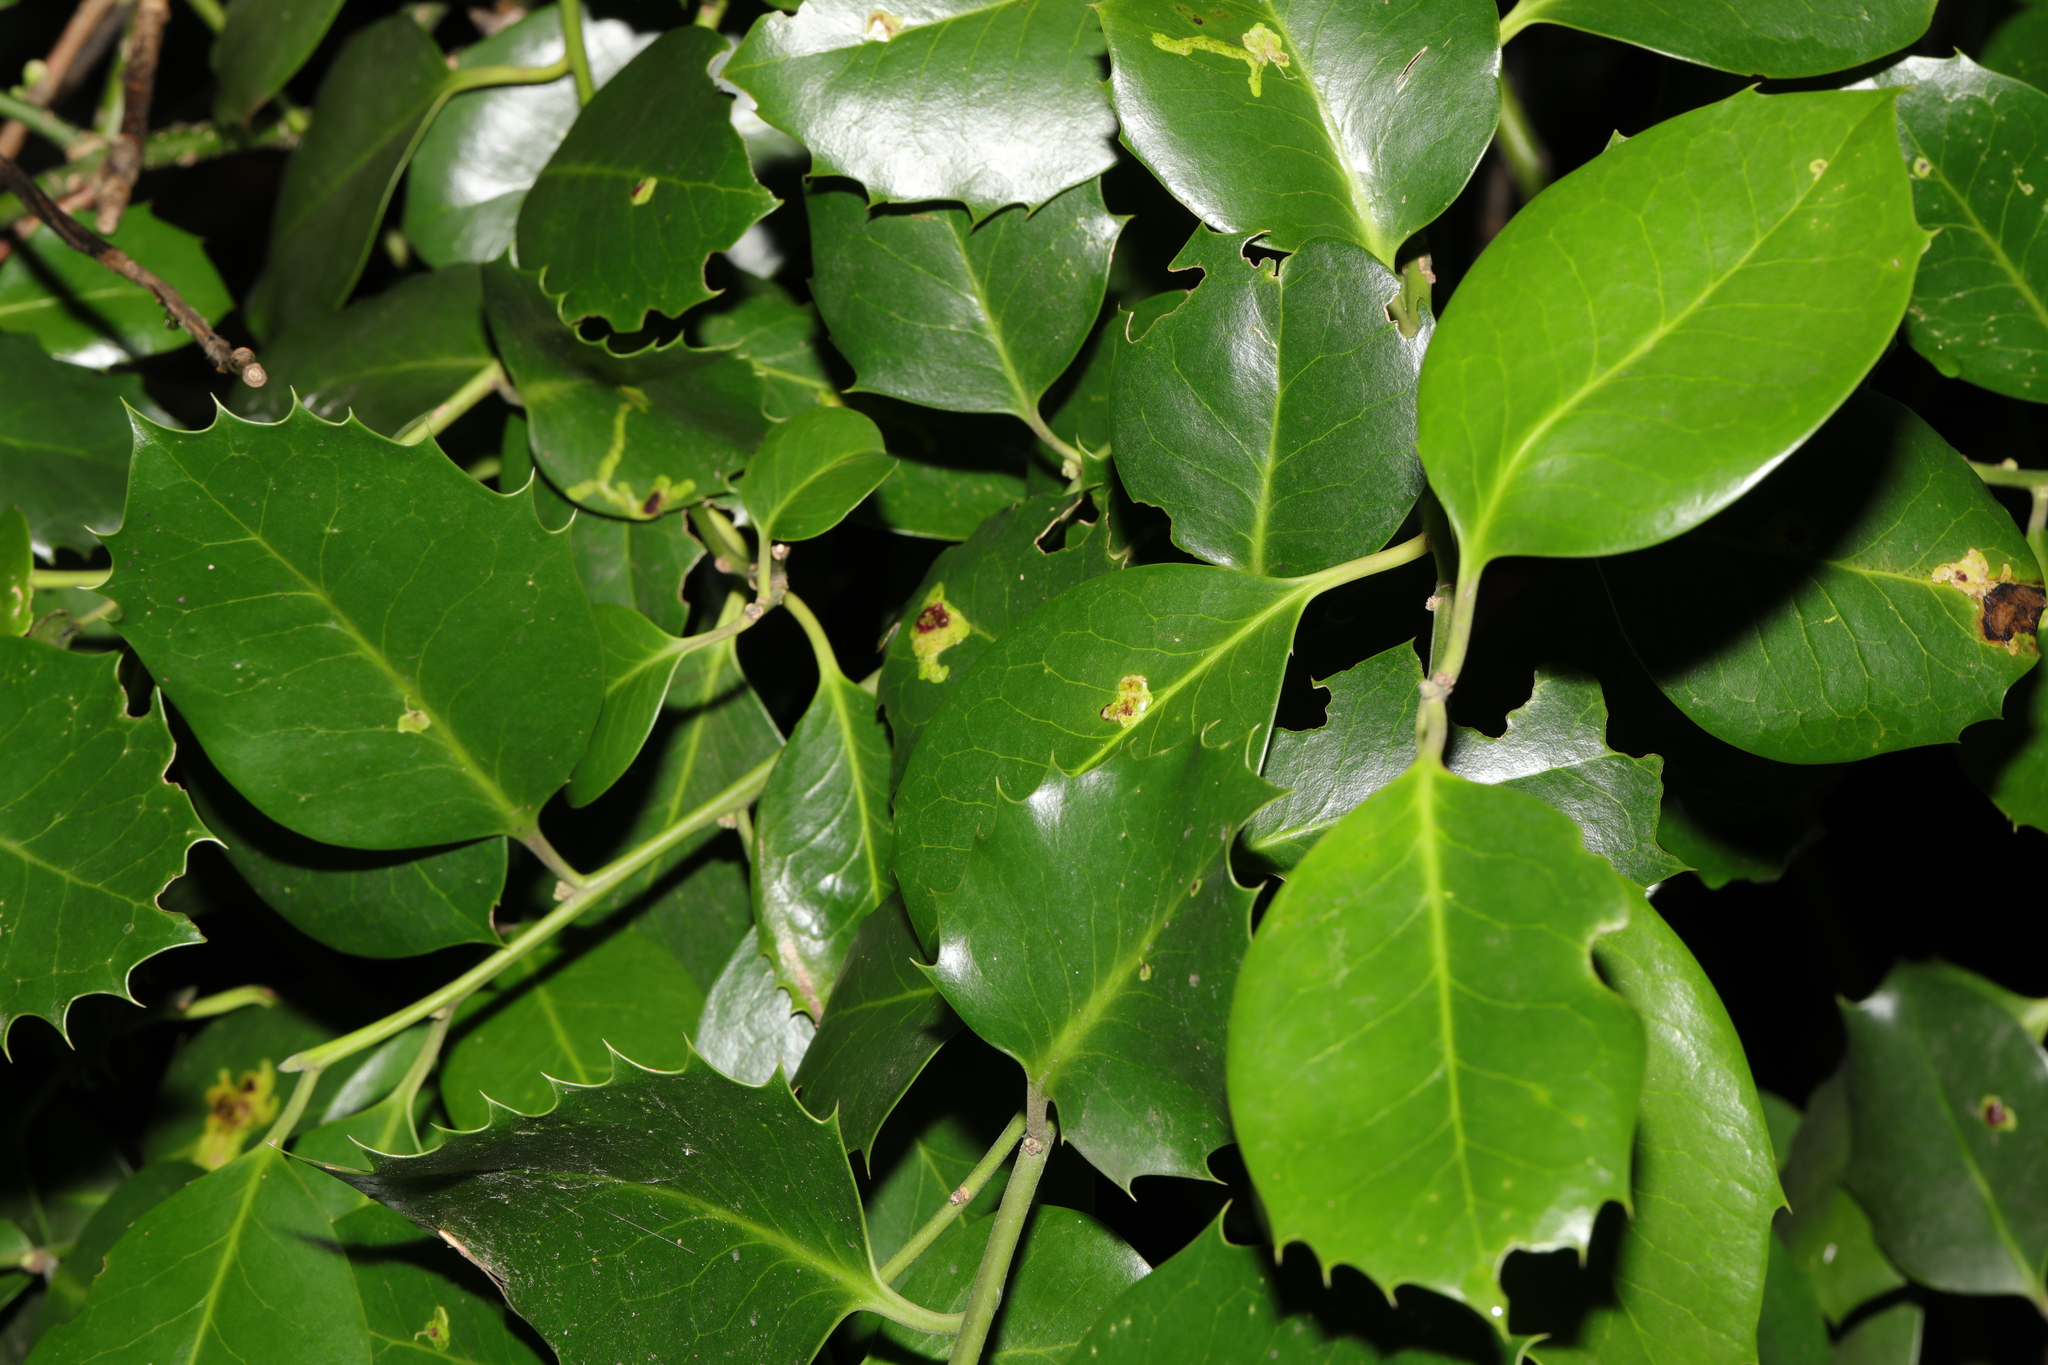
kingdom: Plantae
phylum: Tracheophyta
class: Magnoliopsida
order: Aquifoliales
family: Aquifoliaceae
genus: Ilex
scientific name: Ilex altaclerensis
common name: Highclere holly
